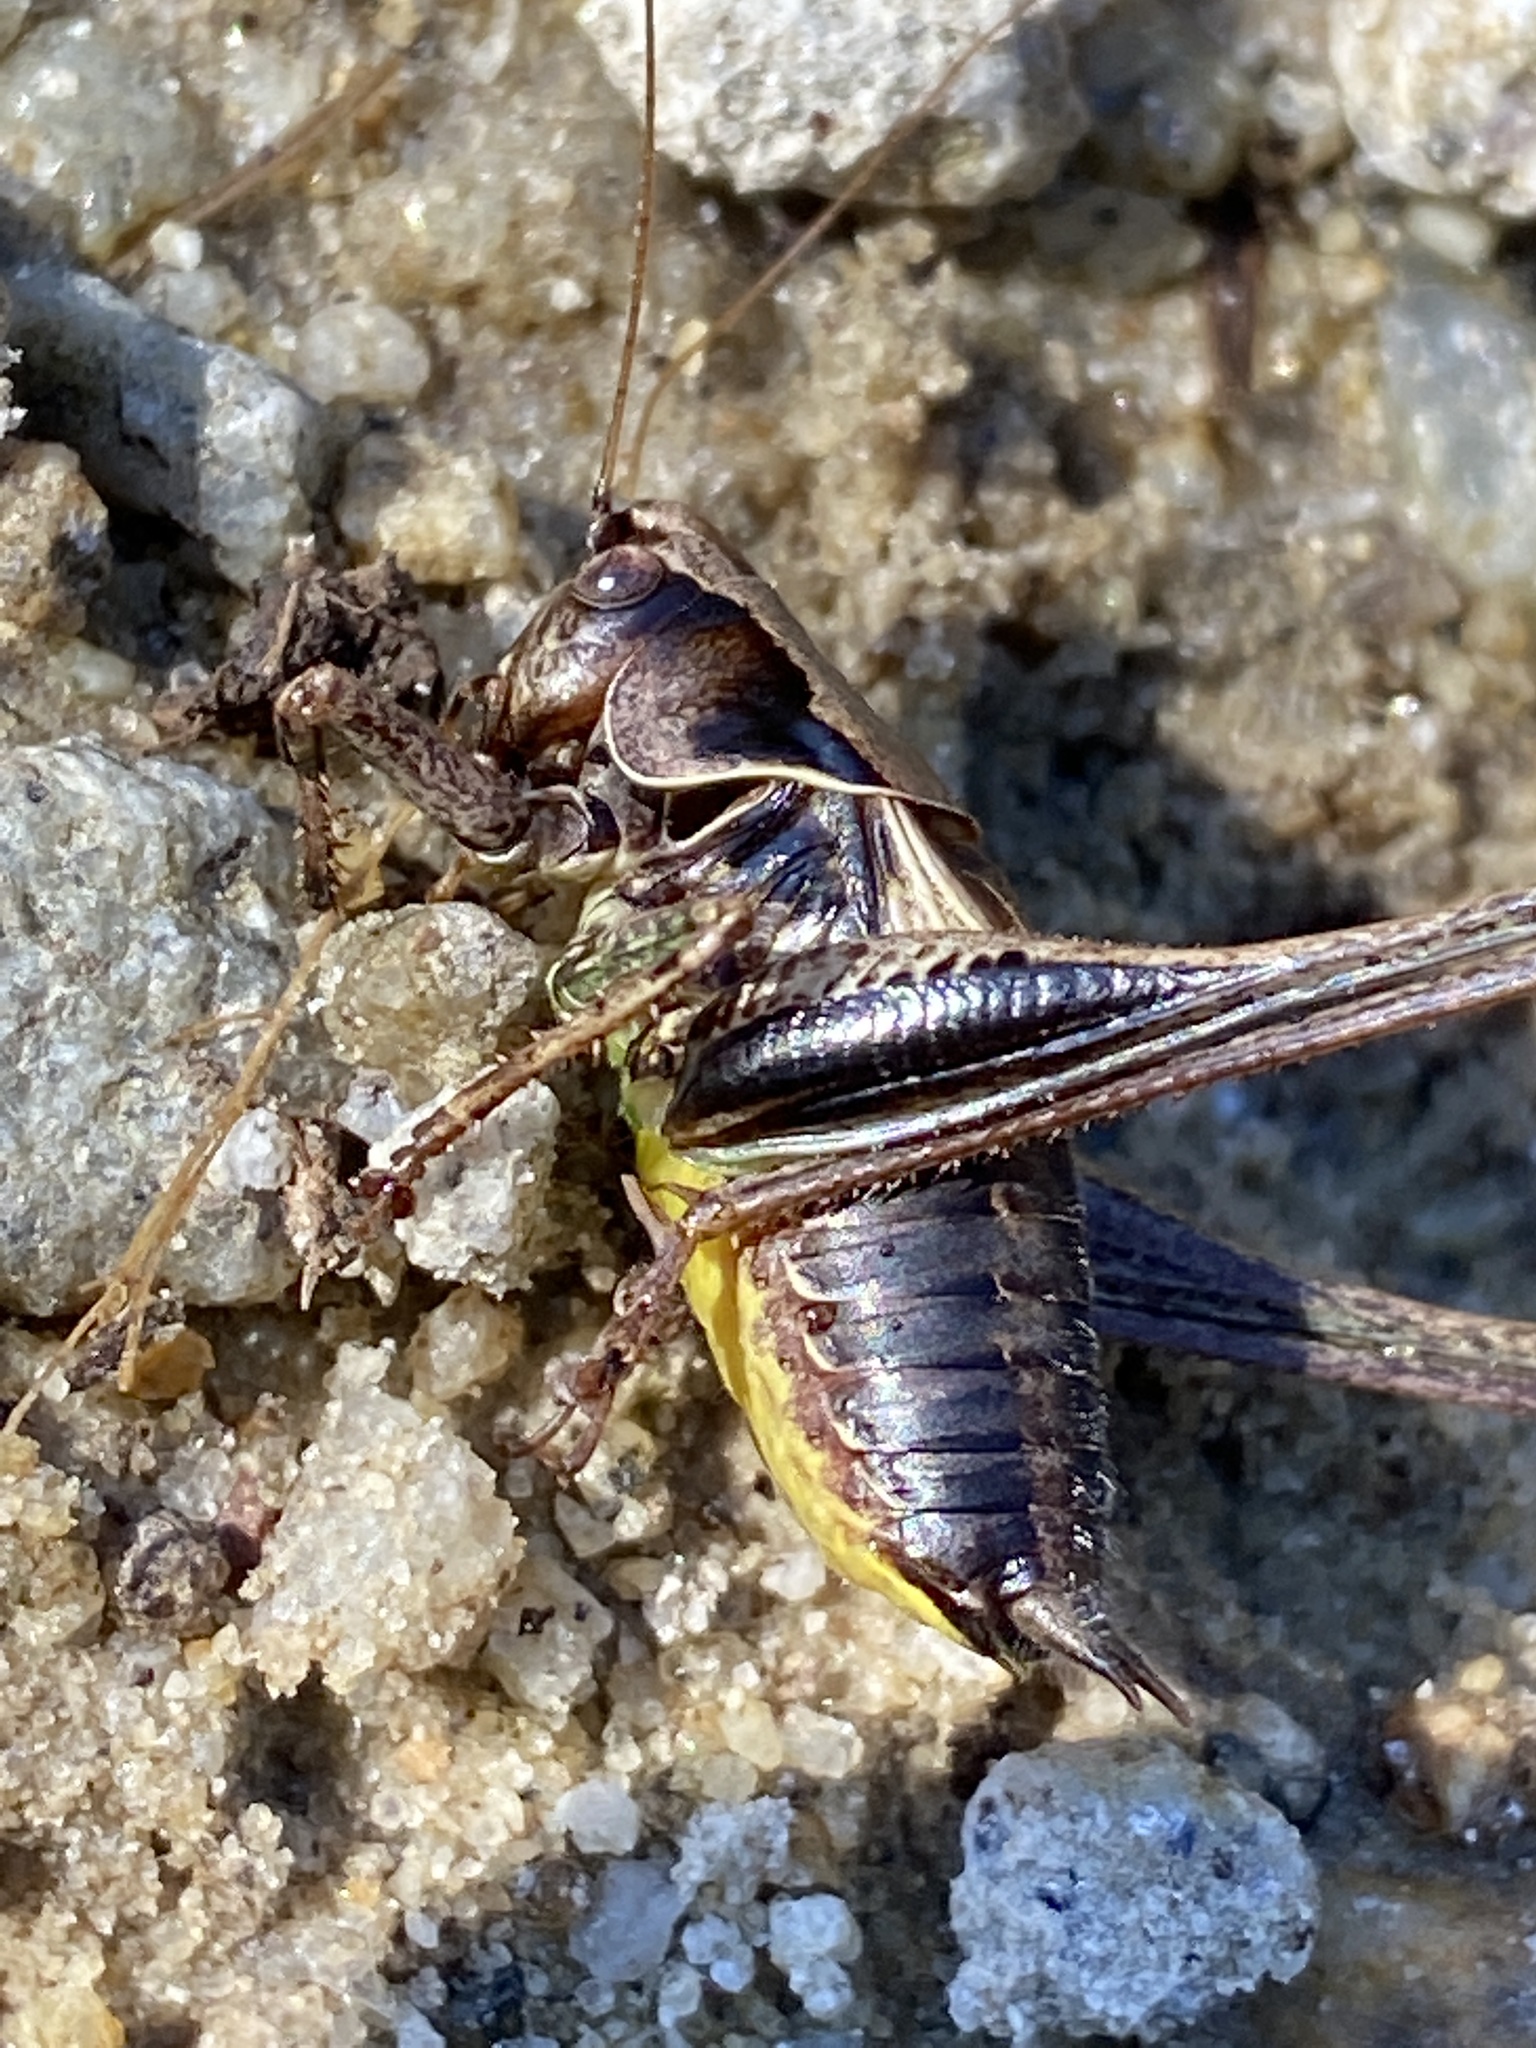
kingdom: Animalia
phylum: Arthropoda
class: Insecta
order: Orthoptera
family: Tettigoniidae
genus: Pholidoptera
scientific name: Pholidoptera griseoaptera
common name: Dark bush-cricket
